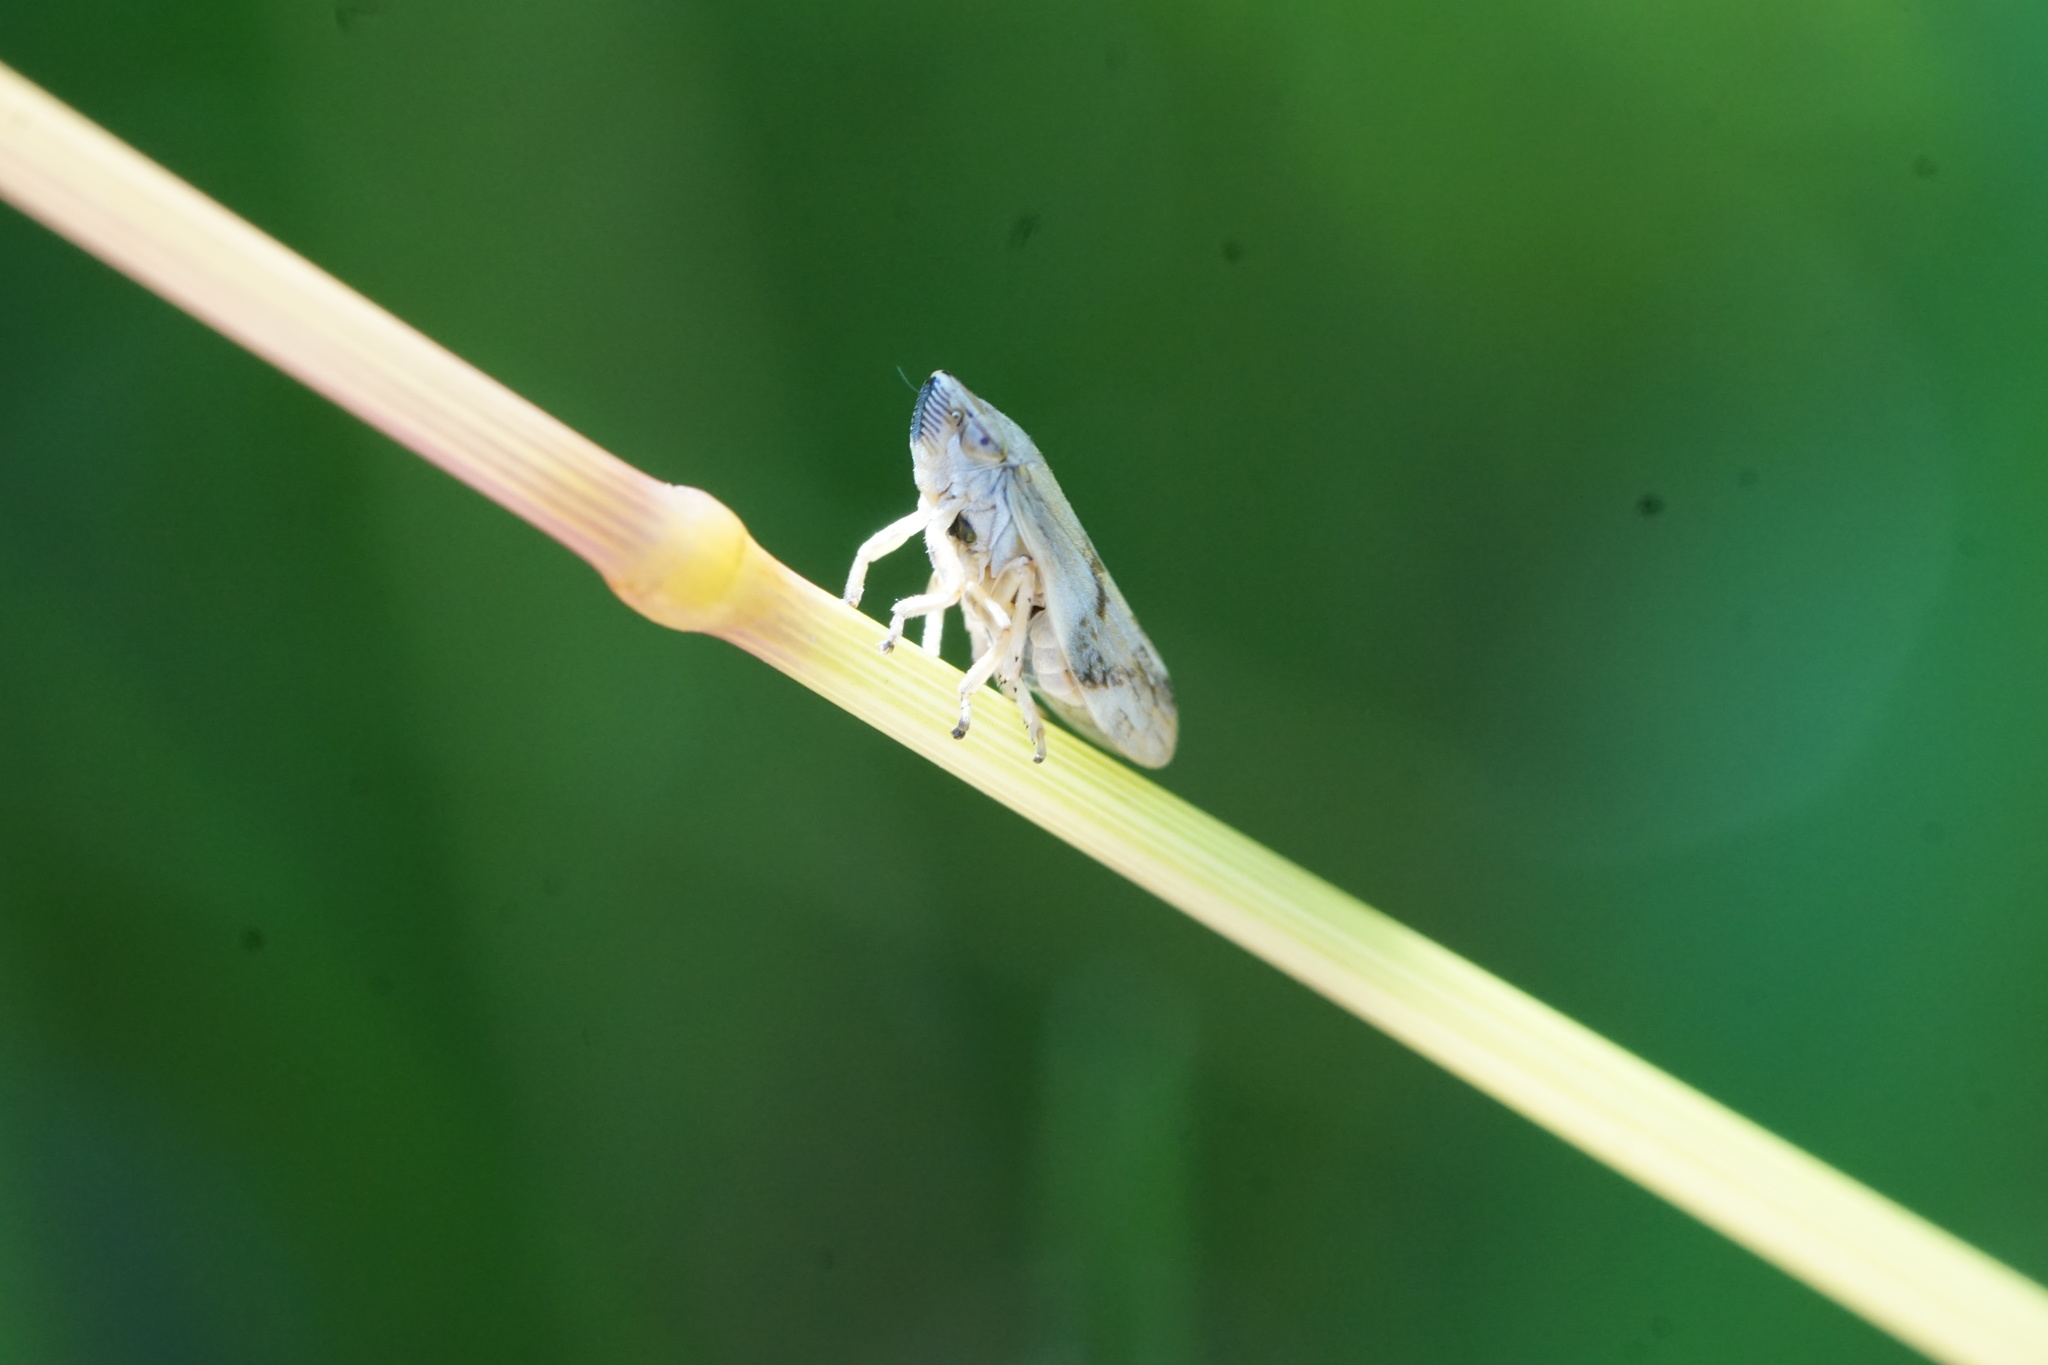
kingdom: Animalia
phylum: Arthropoda
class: Insecta
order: Hemiptera
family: Aphrophoridae
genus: Philaenus
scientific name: Philaenus spumarius
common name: Meadow spittlebug
